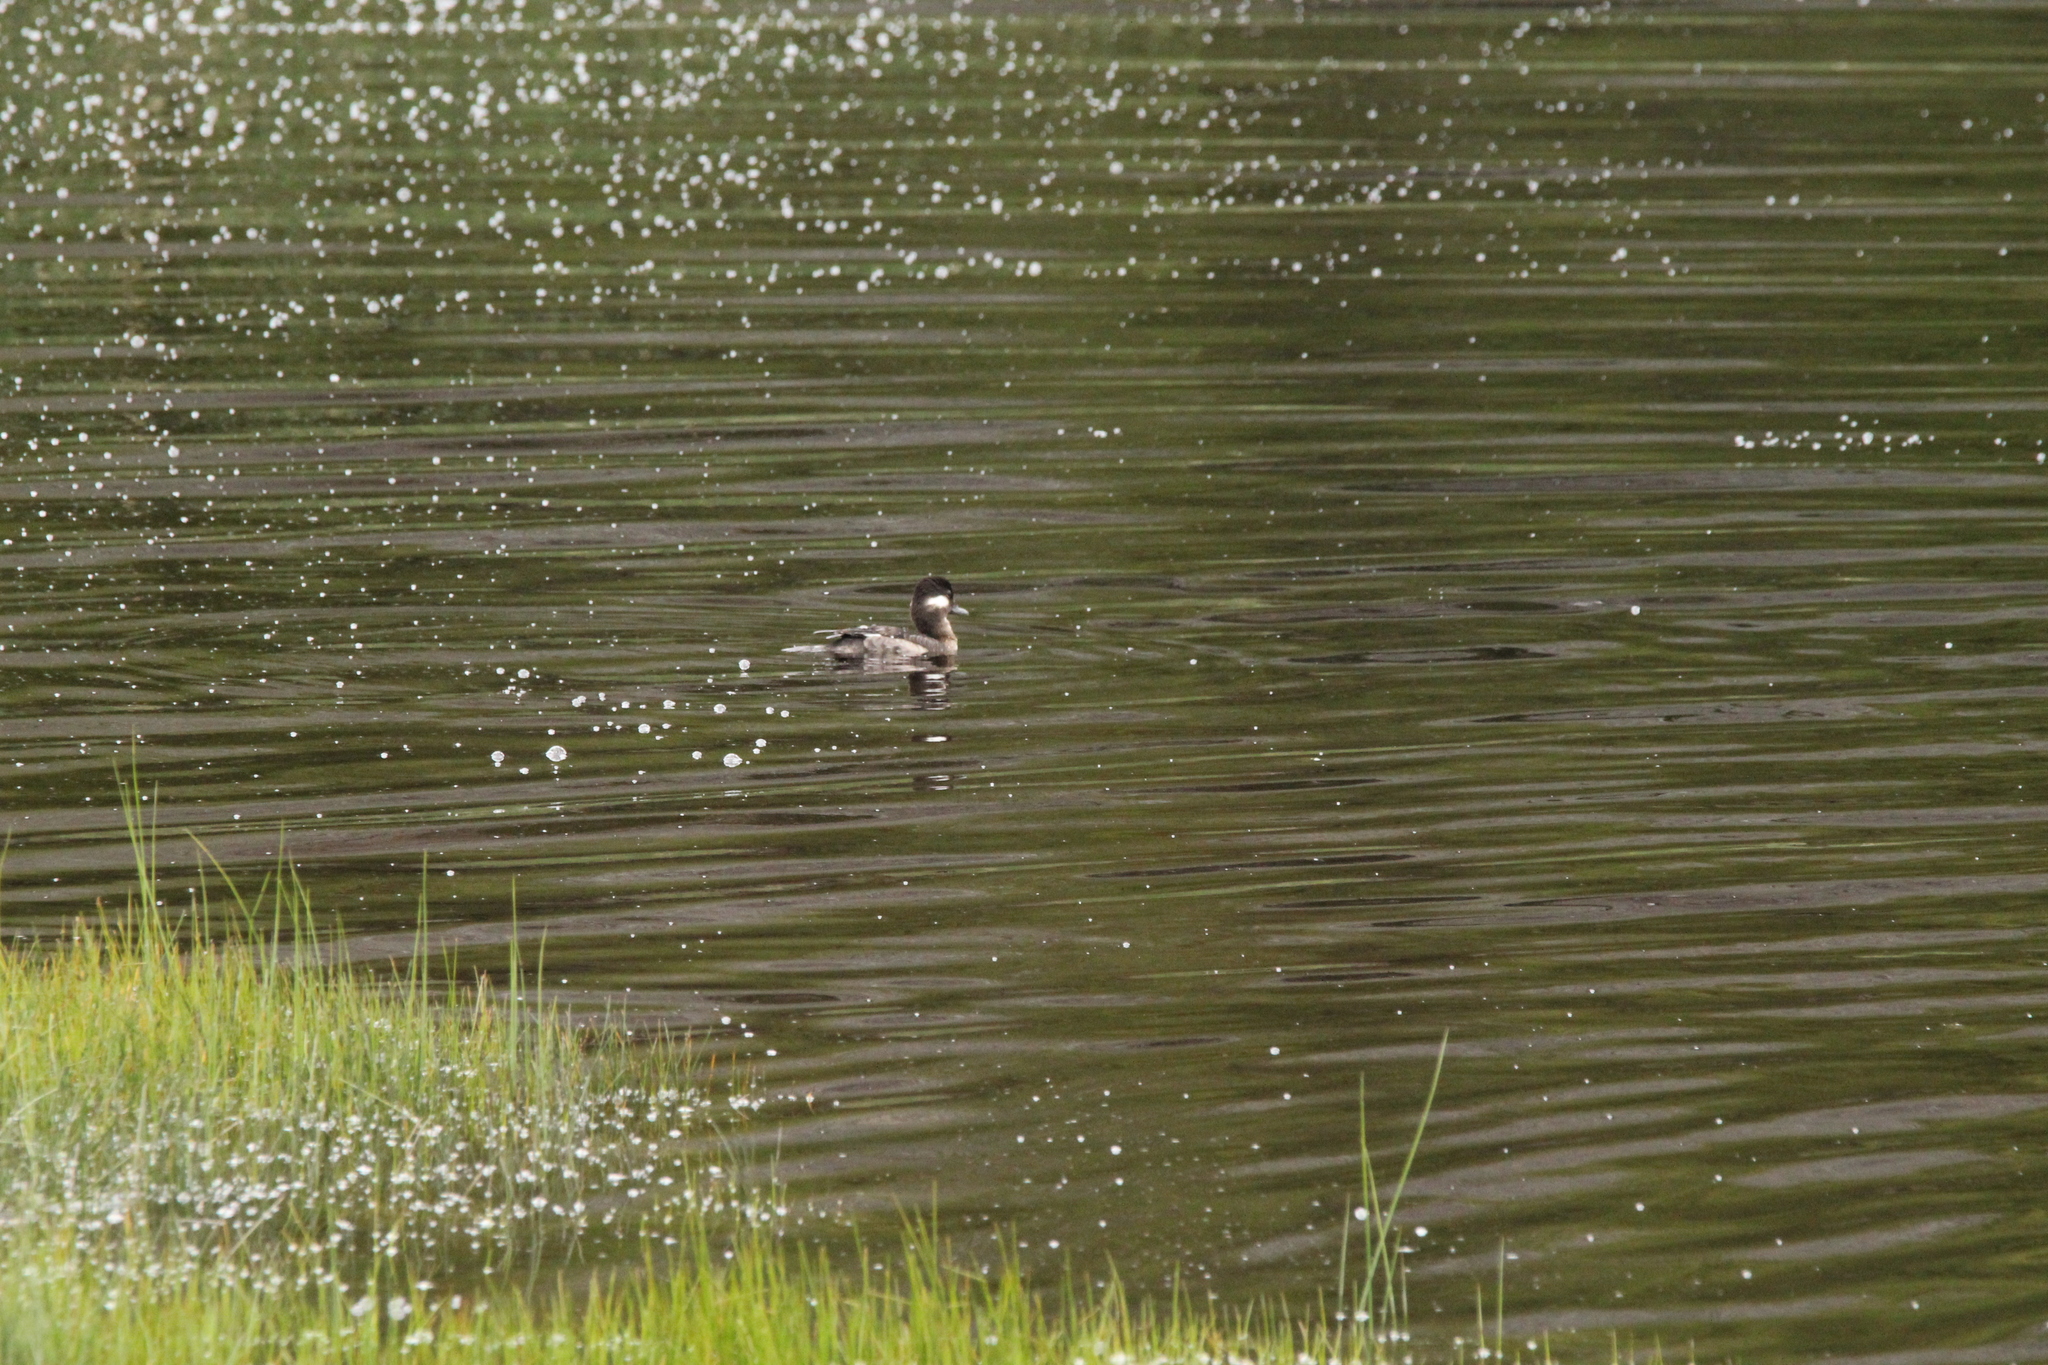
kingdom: Animalia
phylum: Chordata
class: Aves
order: Anseriformes
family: Anatidae
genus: Bucephala
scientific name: Bucephala albeola
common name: Bufflehead
